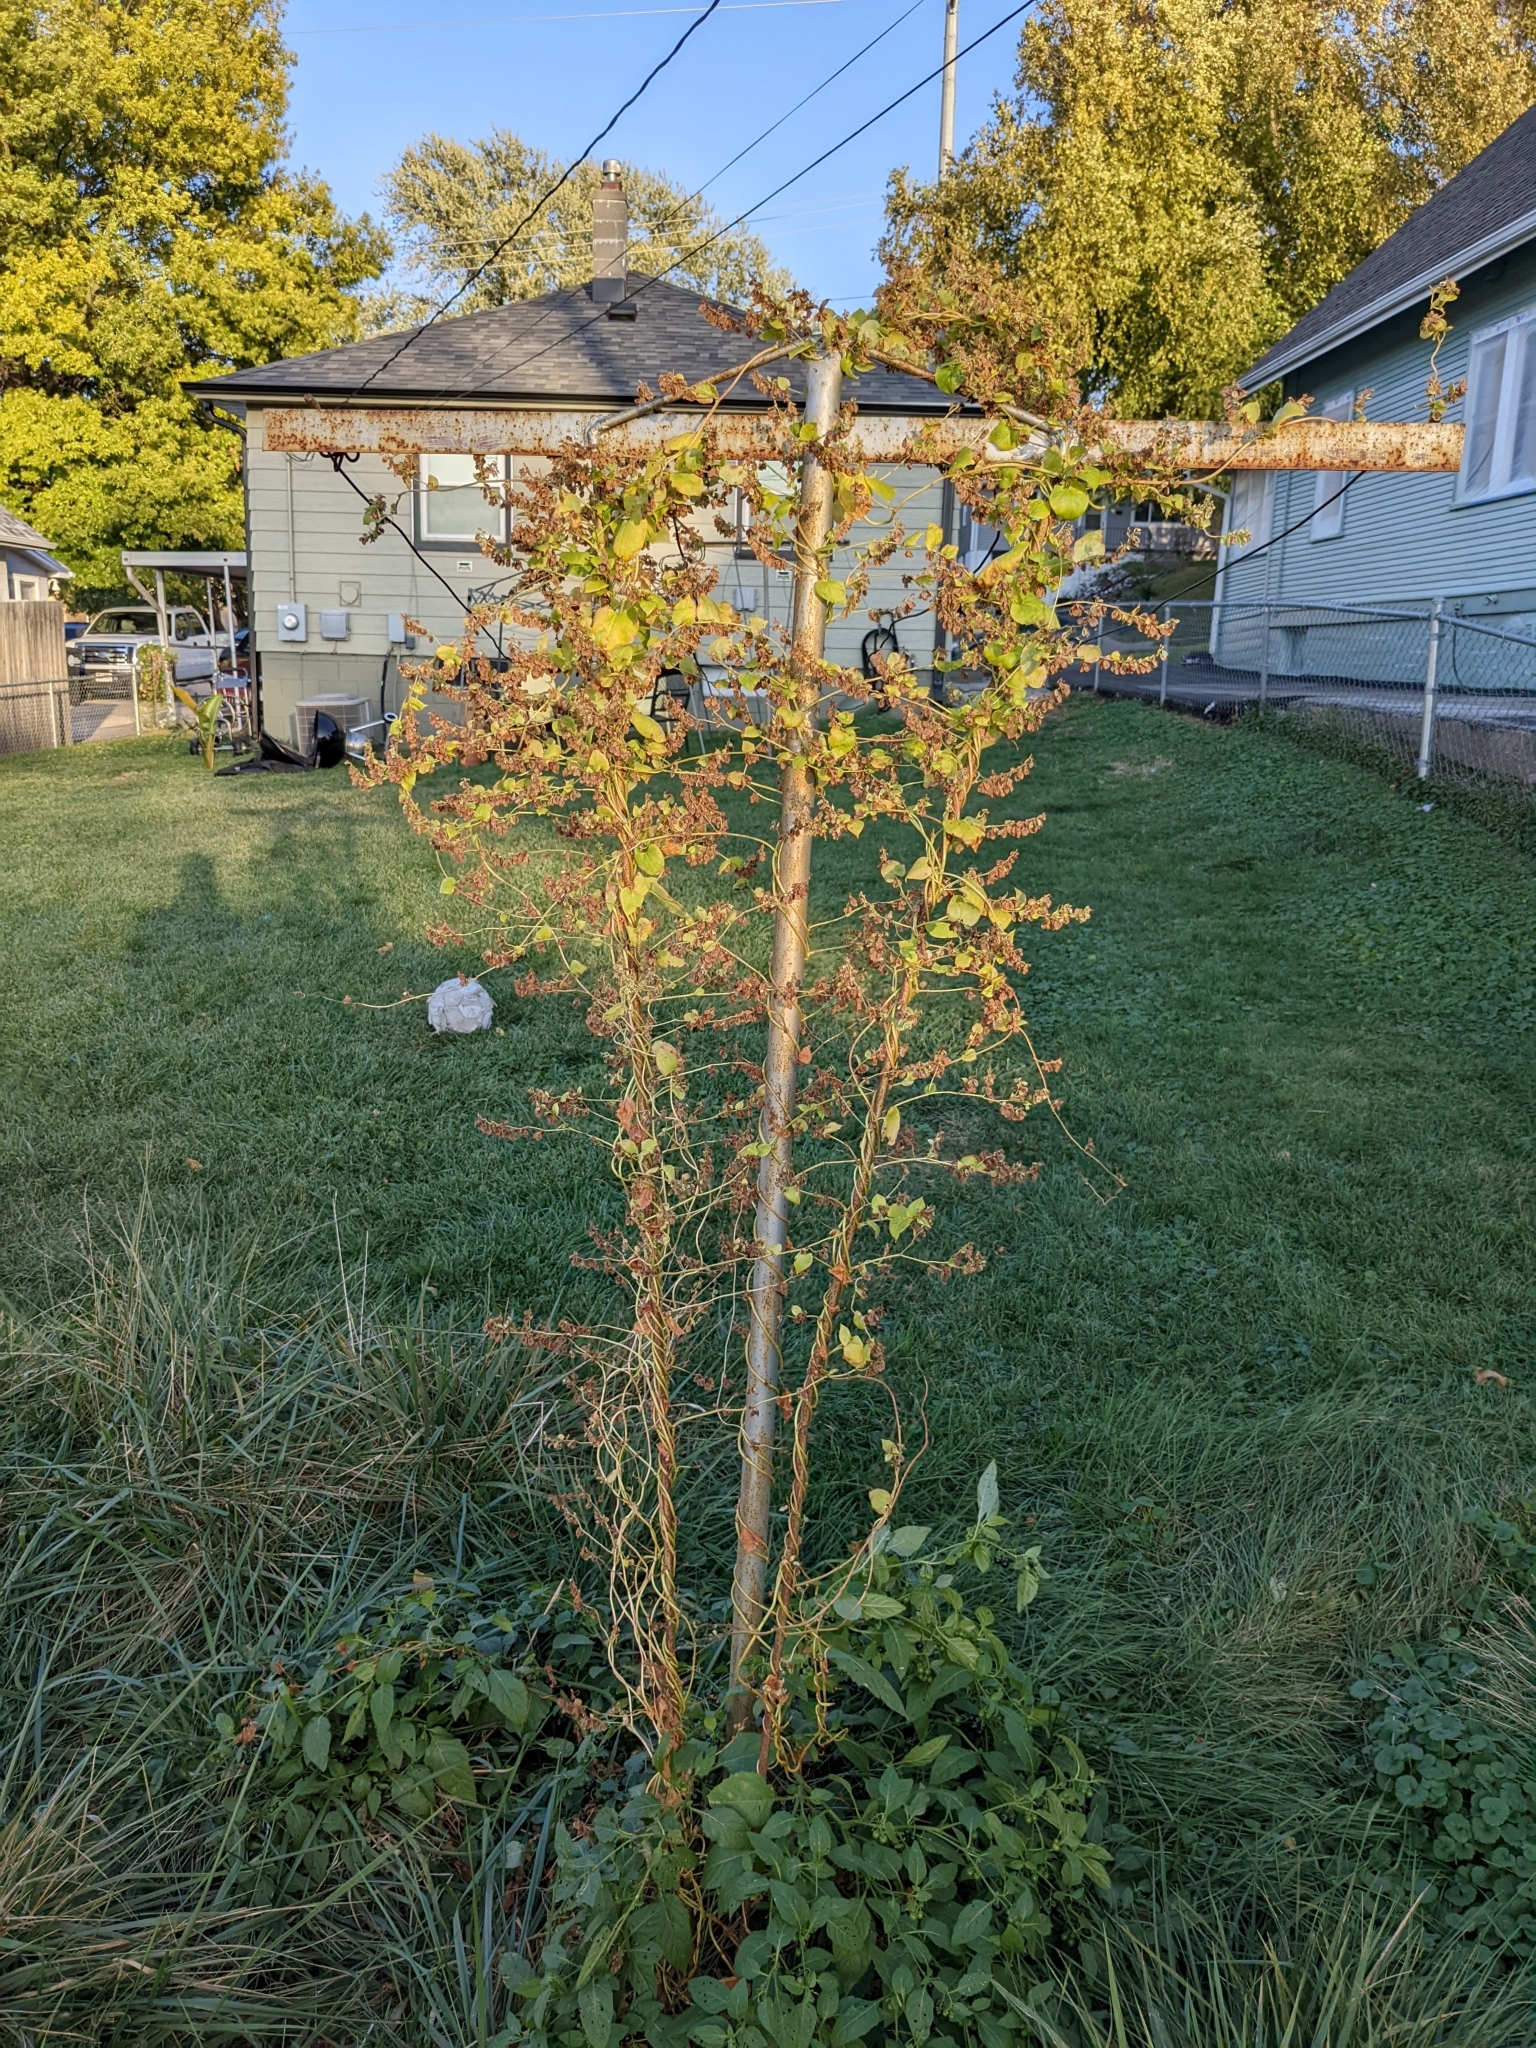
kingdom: Plantae
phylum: Tracheophyta
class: Magnoliopsida
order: Caryophyllales
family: Polygonaceae
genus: Fallopia
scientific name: Fallopia scandens
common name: Climbing false buckwheat
